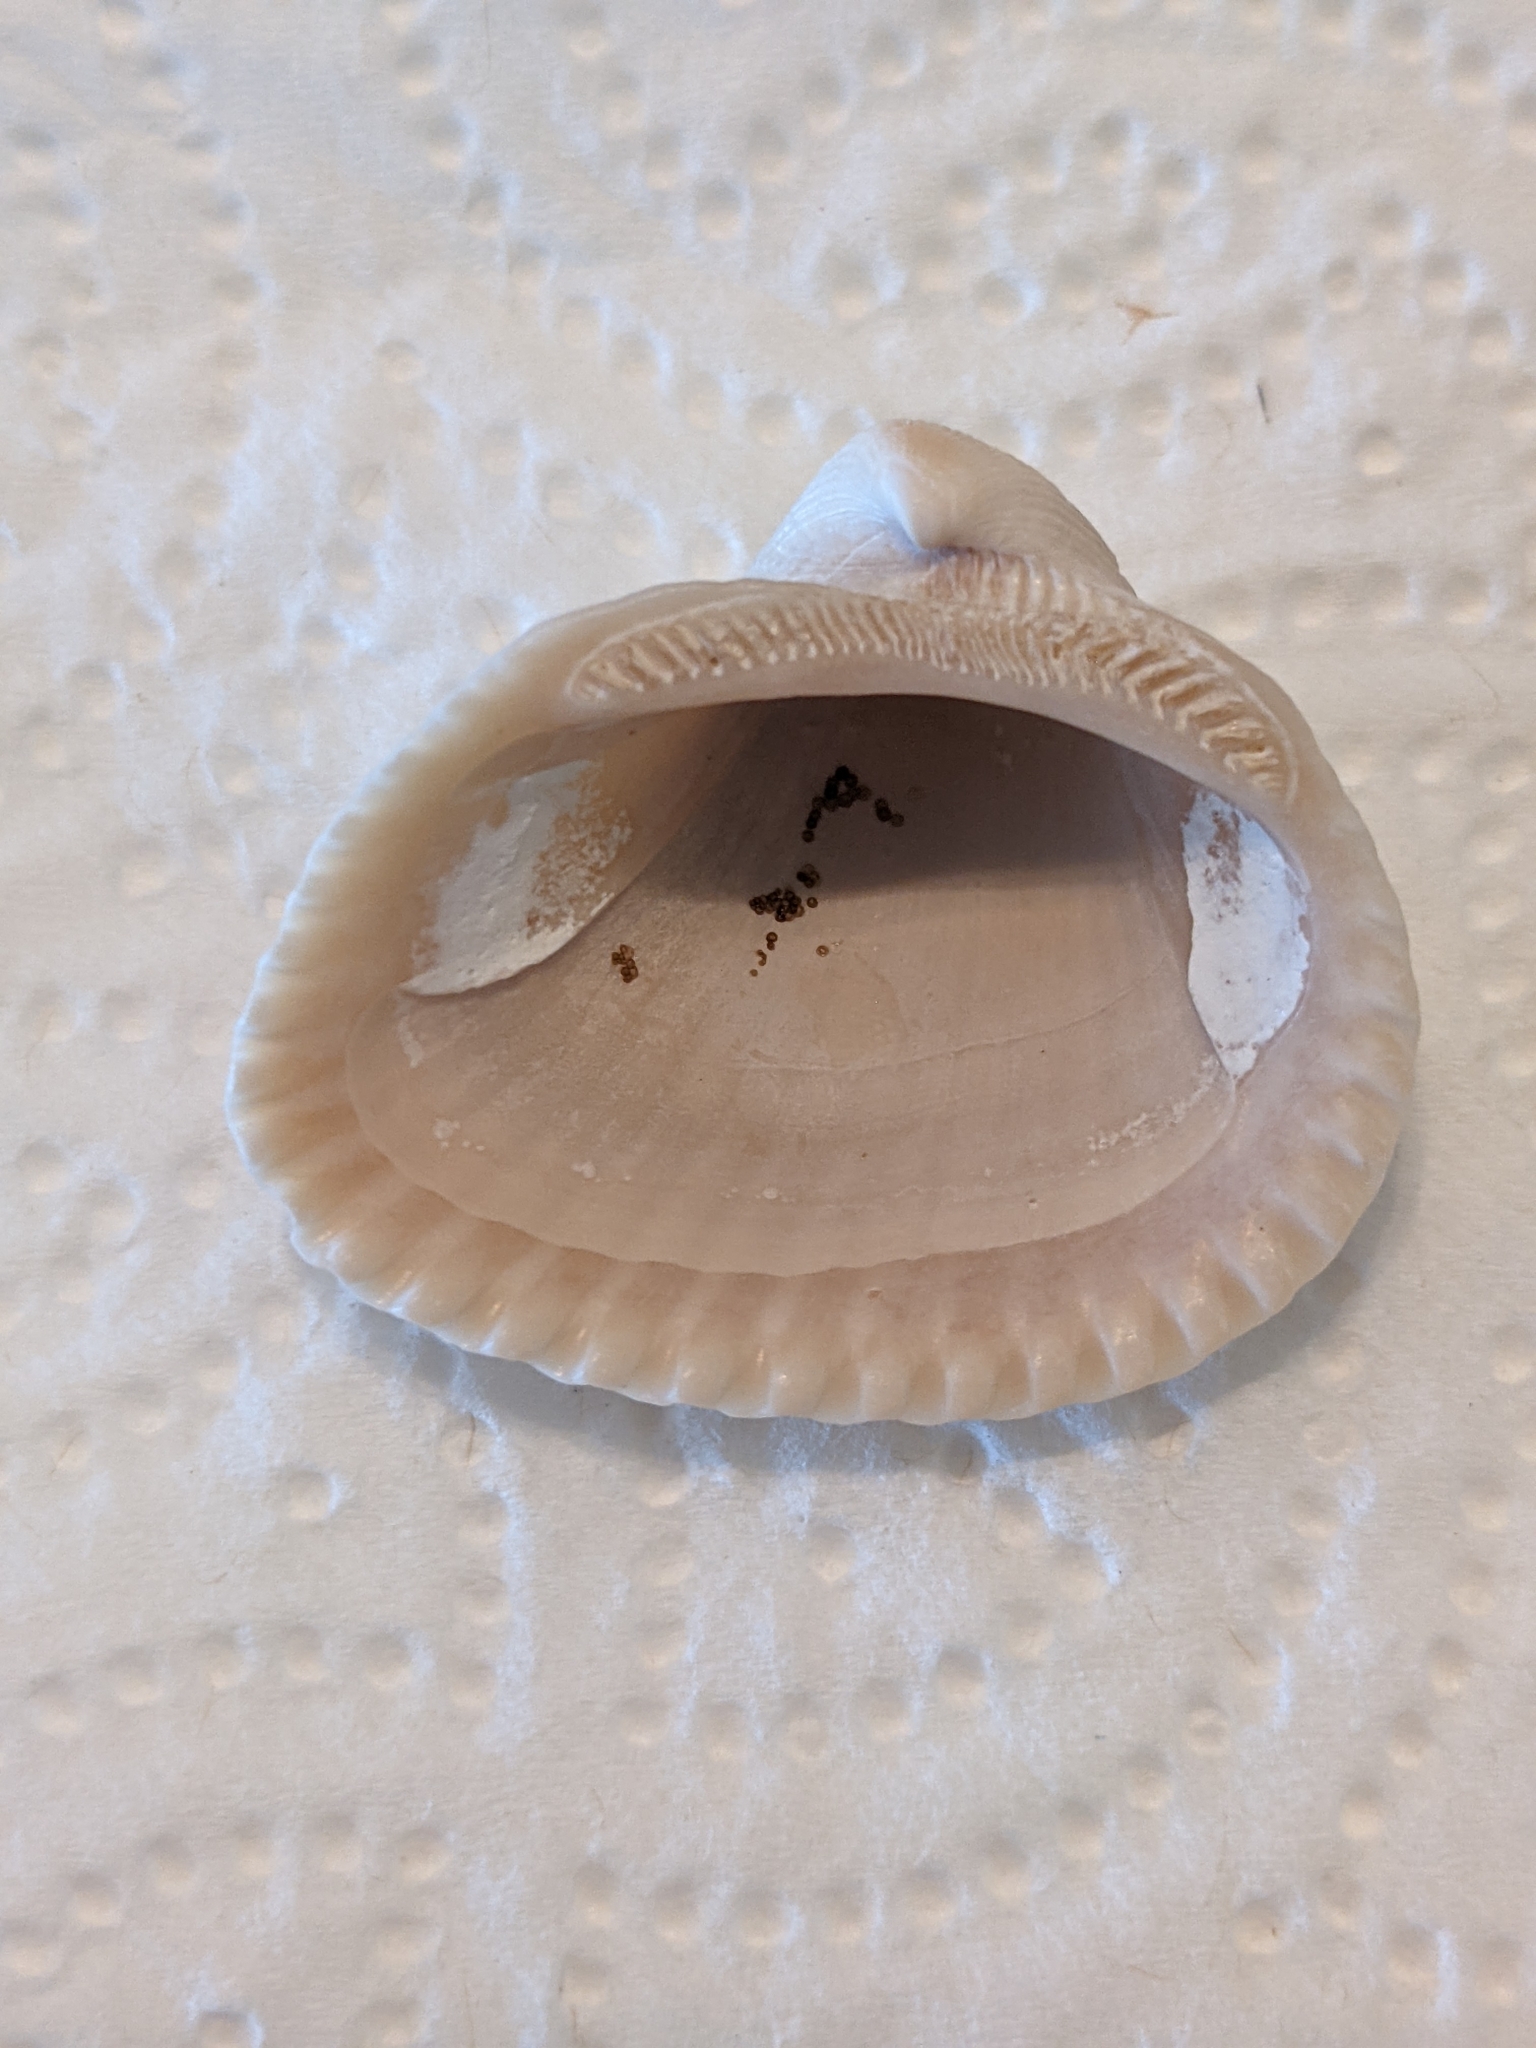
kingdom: Animalia
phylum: Mollusca
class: Bivalvia
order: Arcida
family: Noetiidae
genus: Noetia
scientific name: Noetia ponderosa
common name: Ponderous ark
